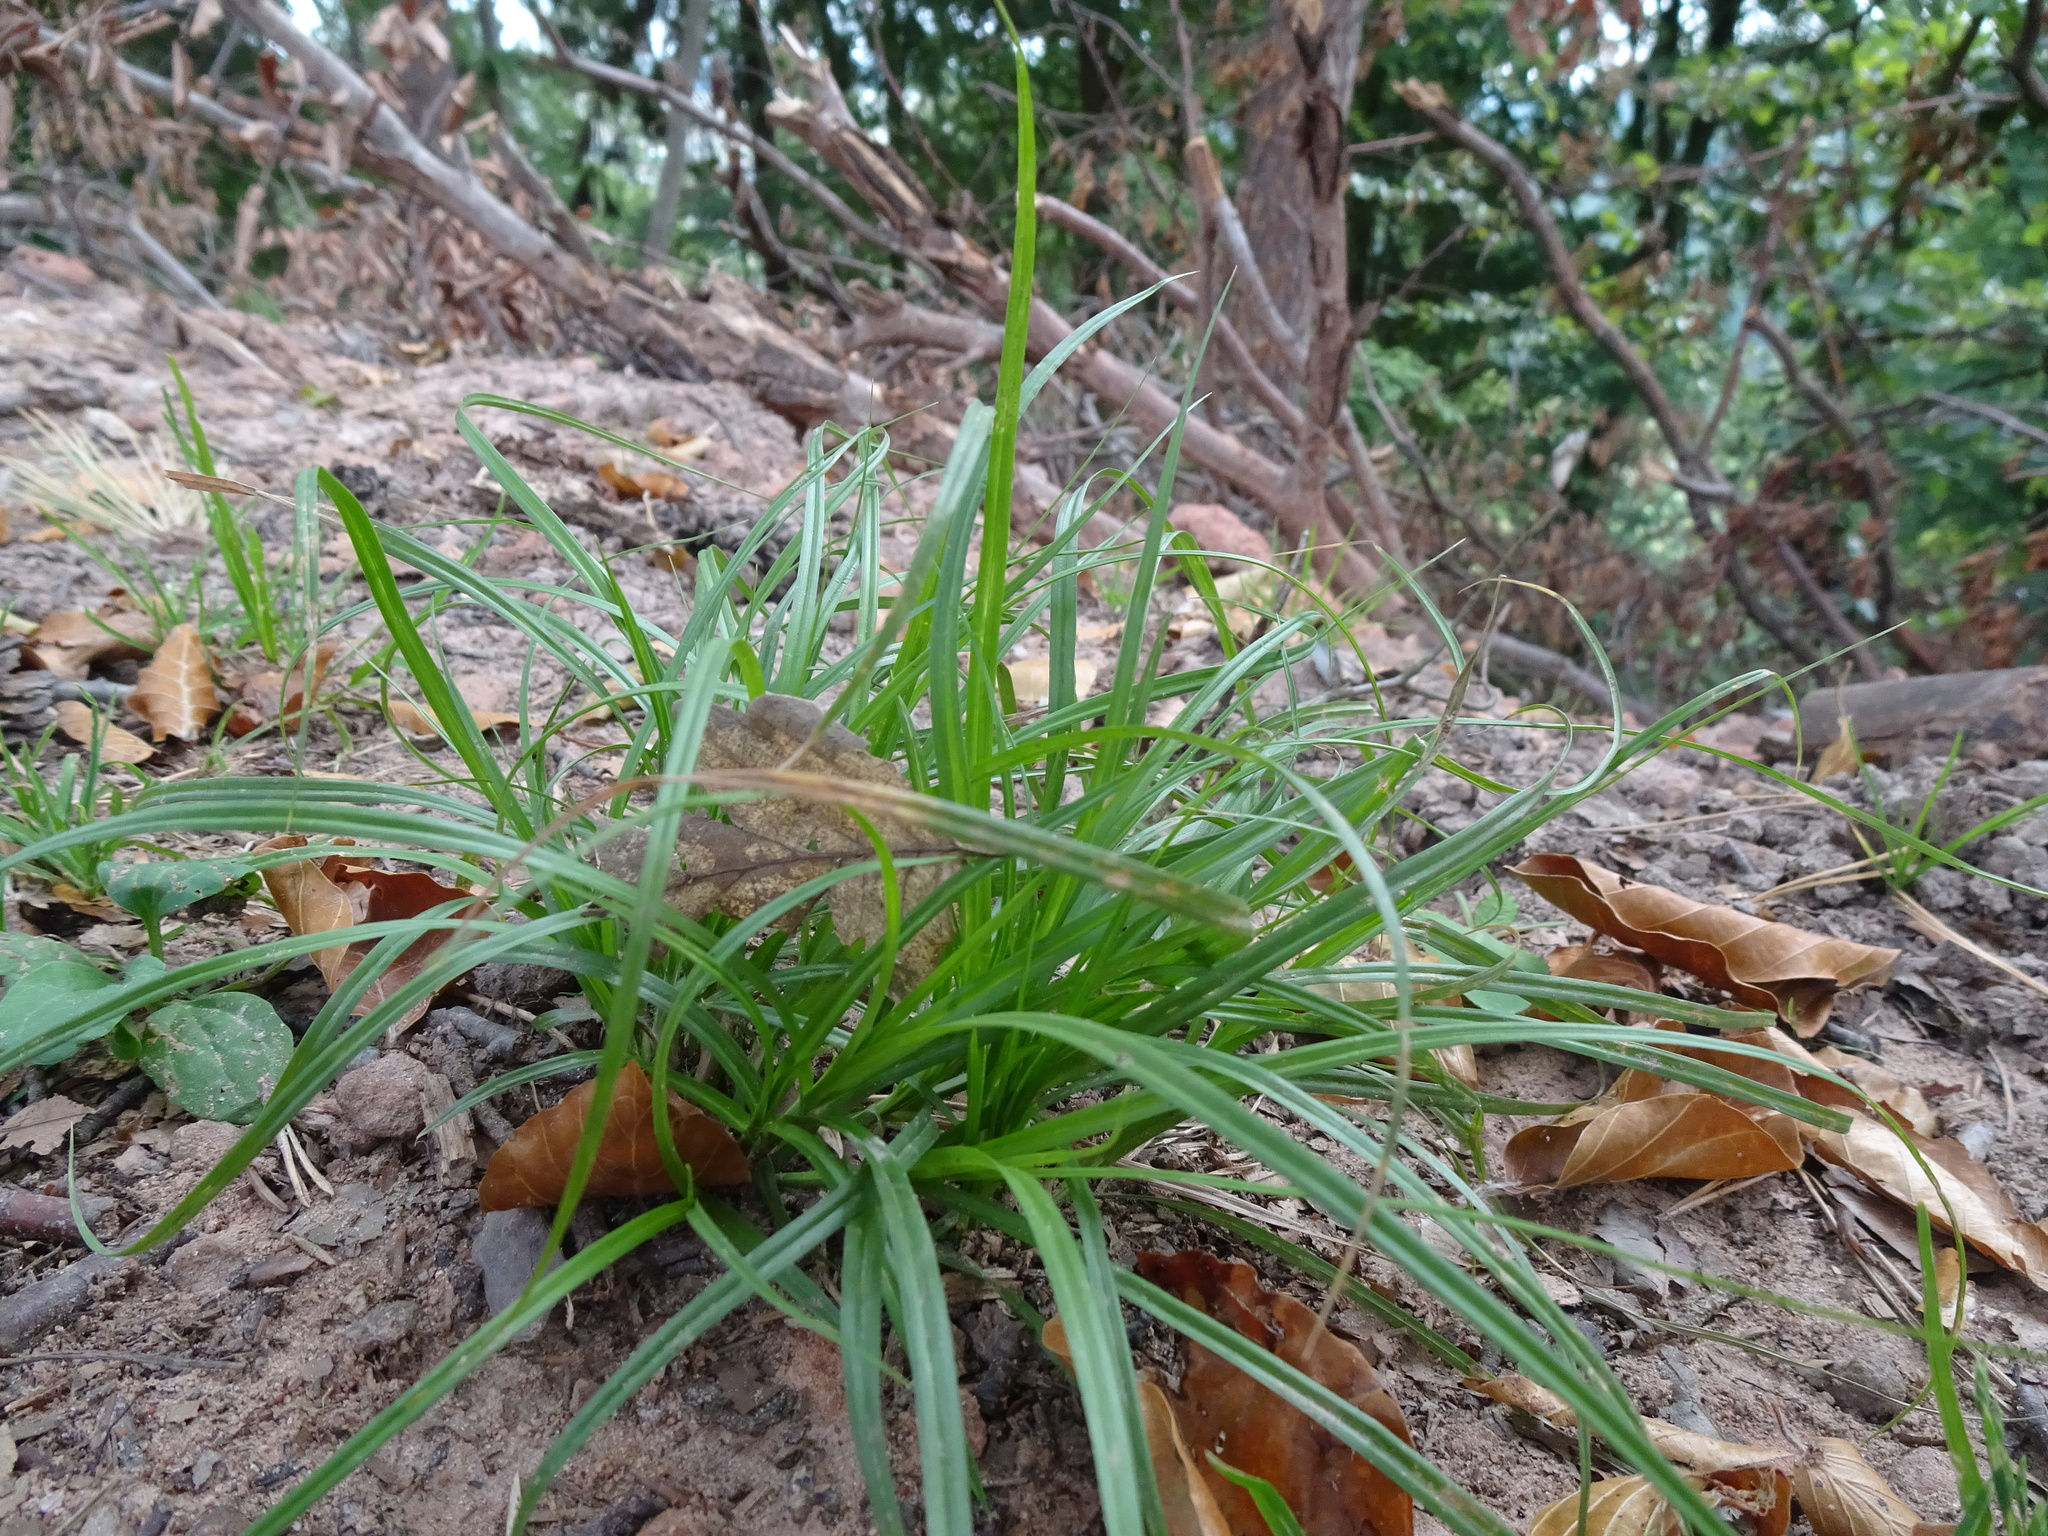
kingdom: Plantae
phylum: Tracheophyta
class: Liliopsida
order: Poales
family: Cyperaceae
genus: Carex
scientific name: Carex sylvatica
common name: Wood-sedge
